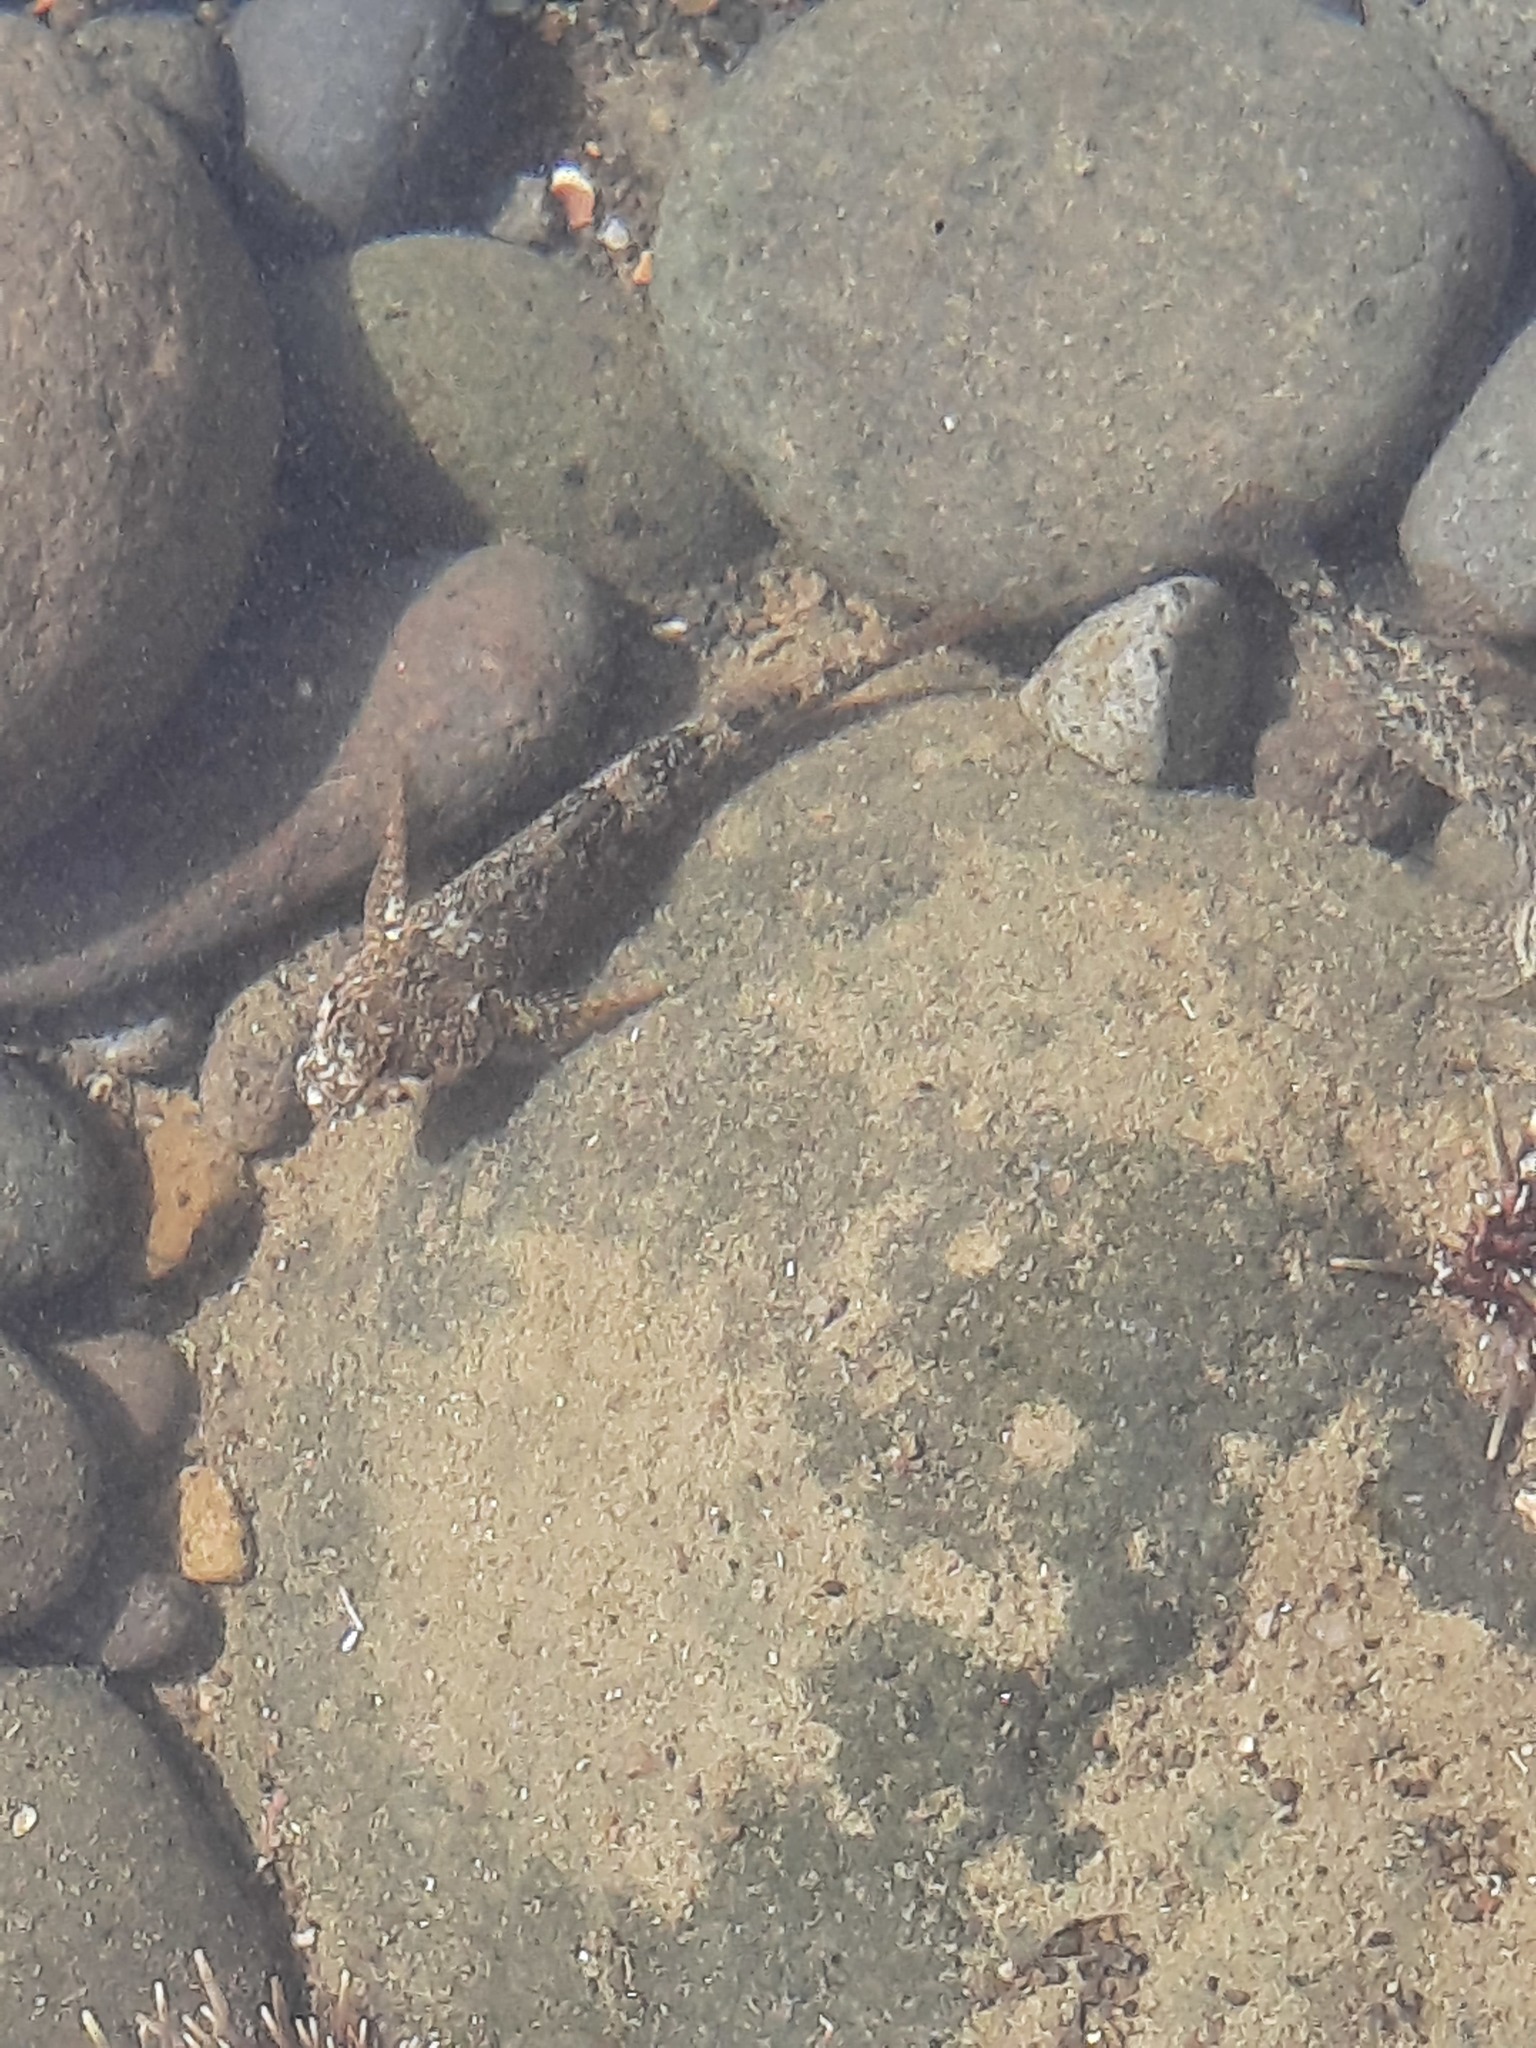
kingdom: Animalia
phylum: Chordata
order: Perciformes
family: Tripterygiidae
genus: Bellapiscis
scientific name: Bellapiscis medius
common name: Twister
